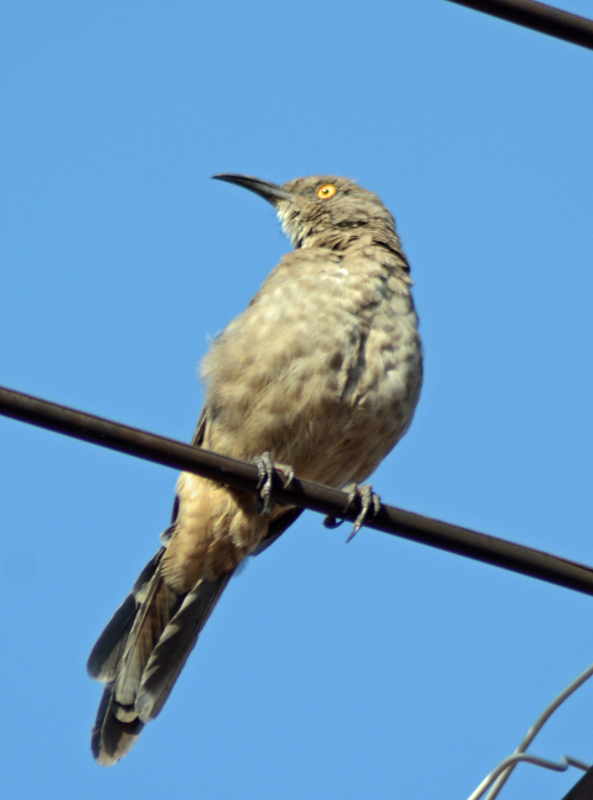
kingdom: Animalia
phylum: Chordata
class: Aves
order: Passeriformes
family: Mimidae
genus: Toxostoma
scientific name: Toxostoma curvirostre
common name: Curve-billed thrasher
